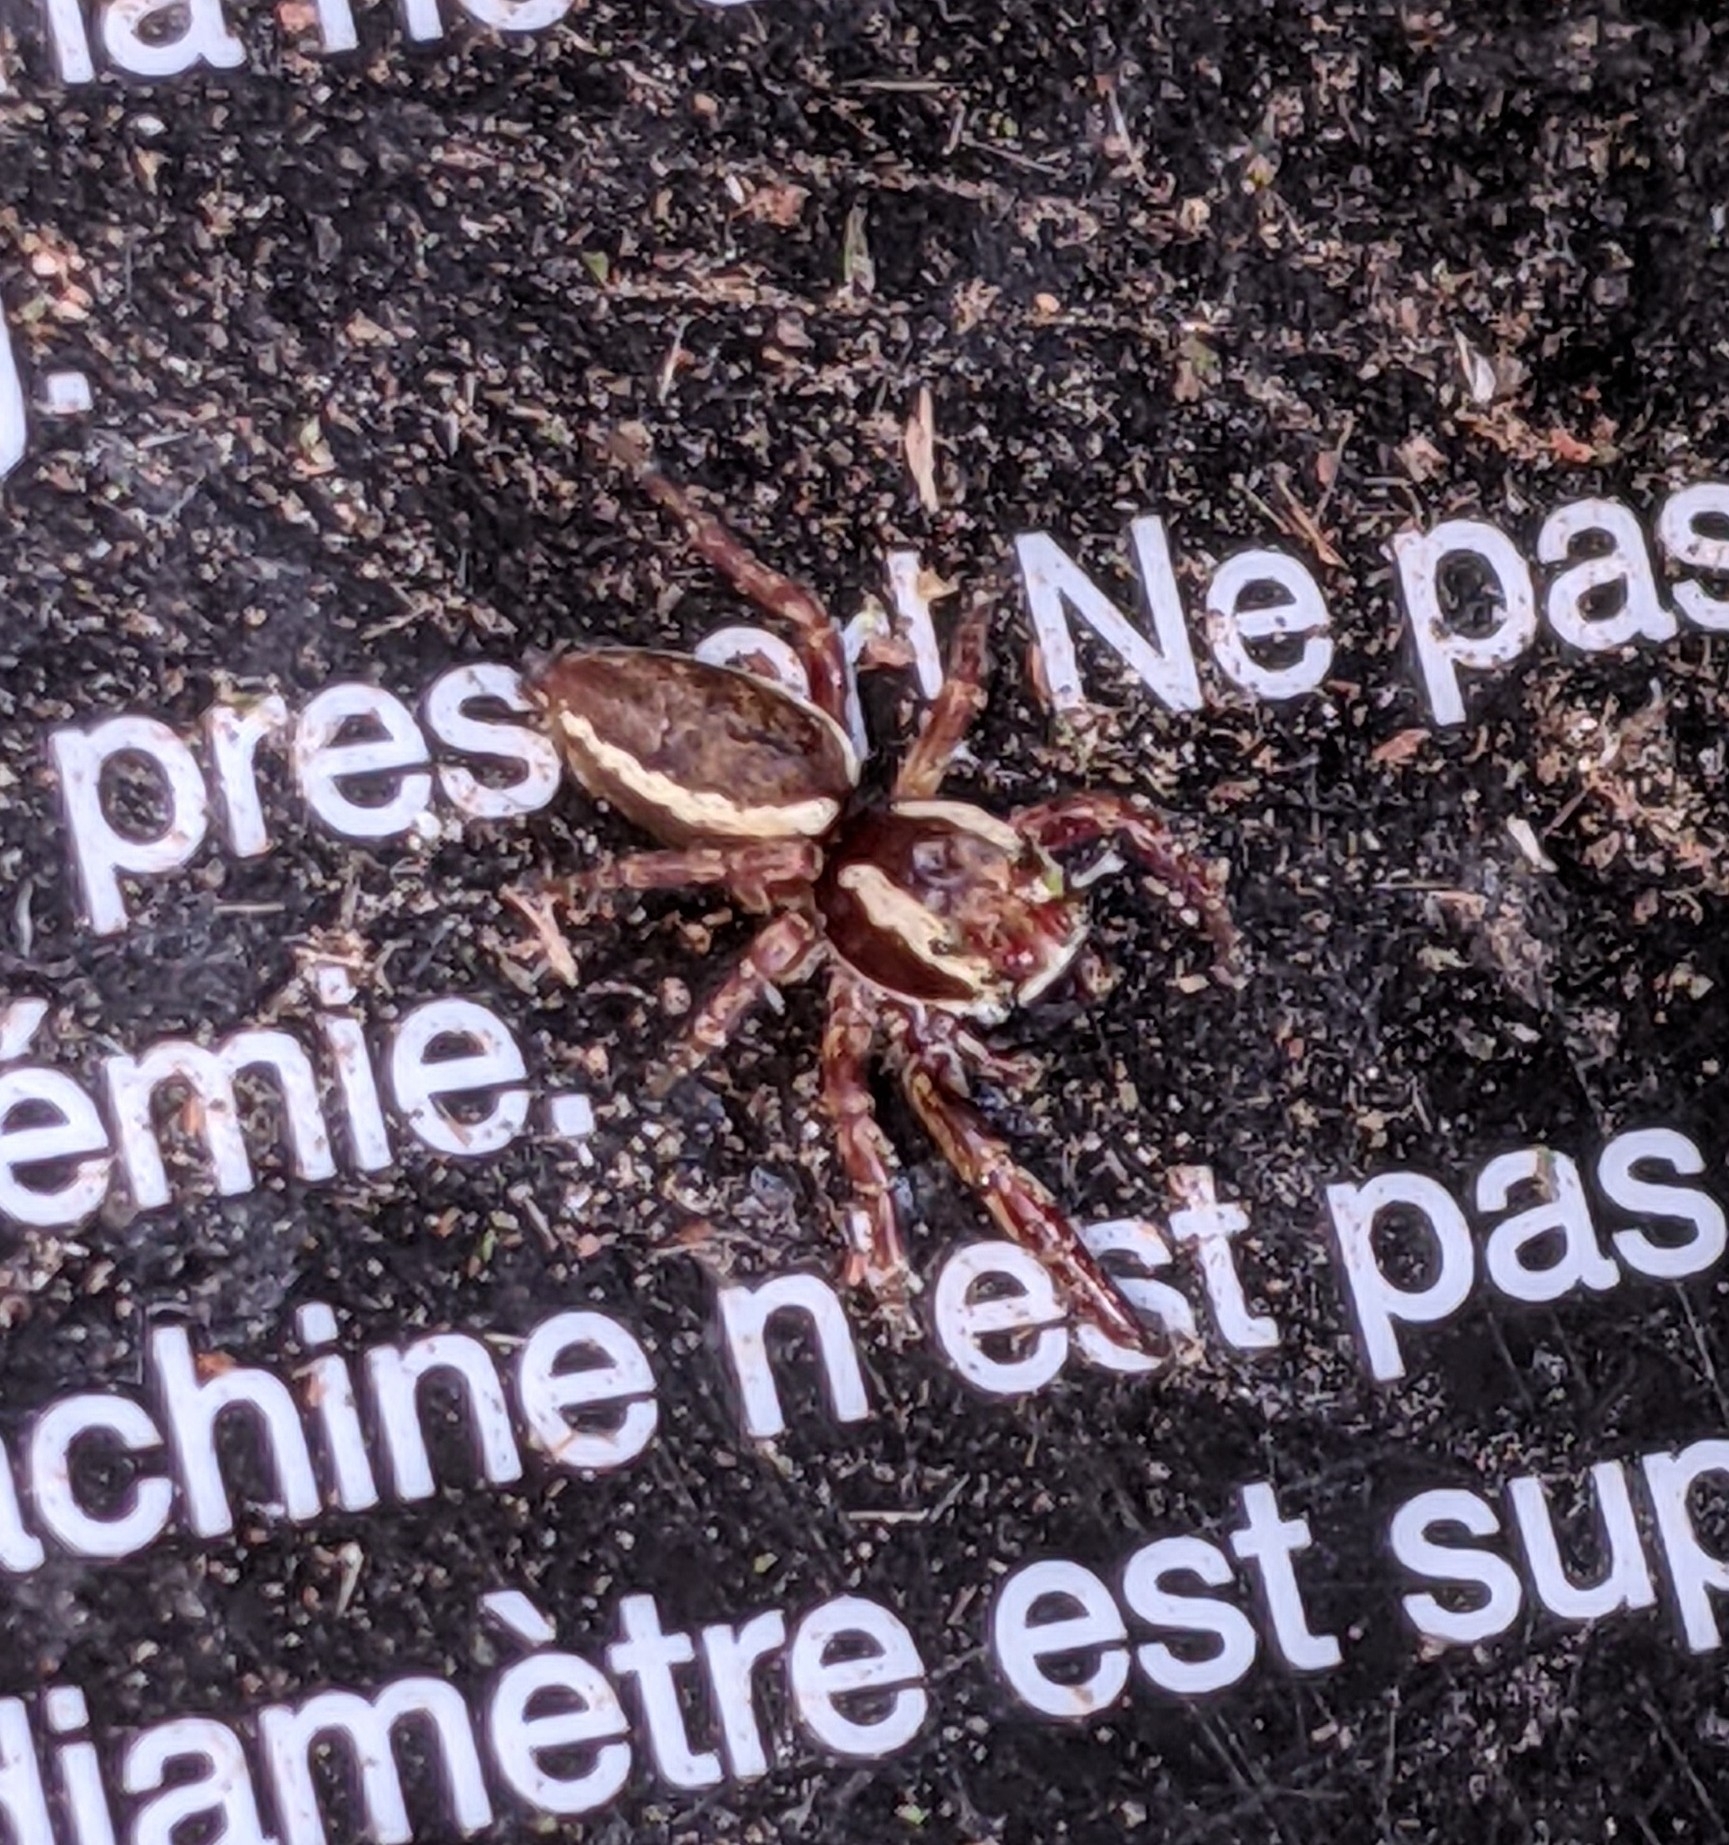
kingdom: Animalia
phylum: Arthropoda
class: Arachnida
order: Araneae
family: Salticidae
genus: Phanias
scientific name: Phanias albeolus
